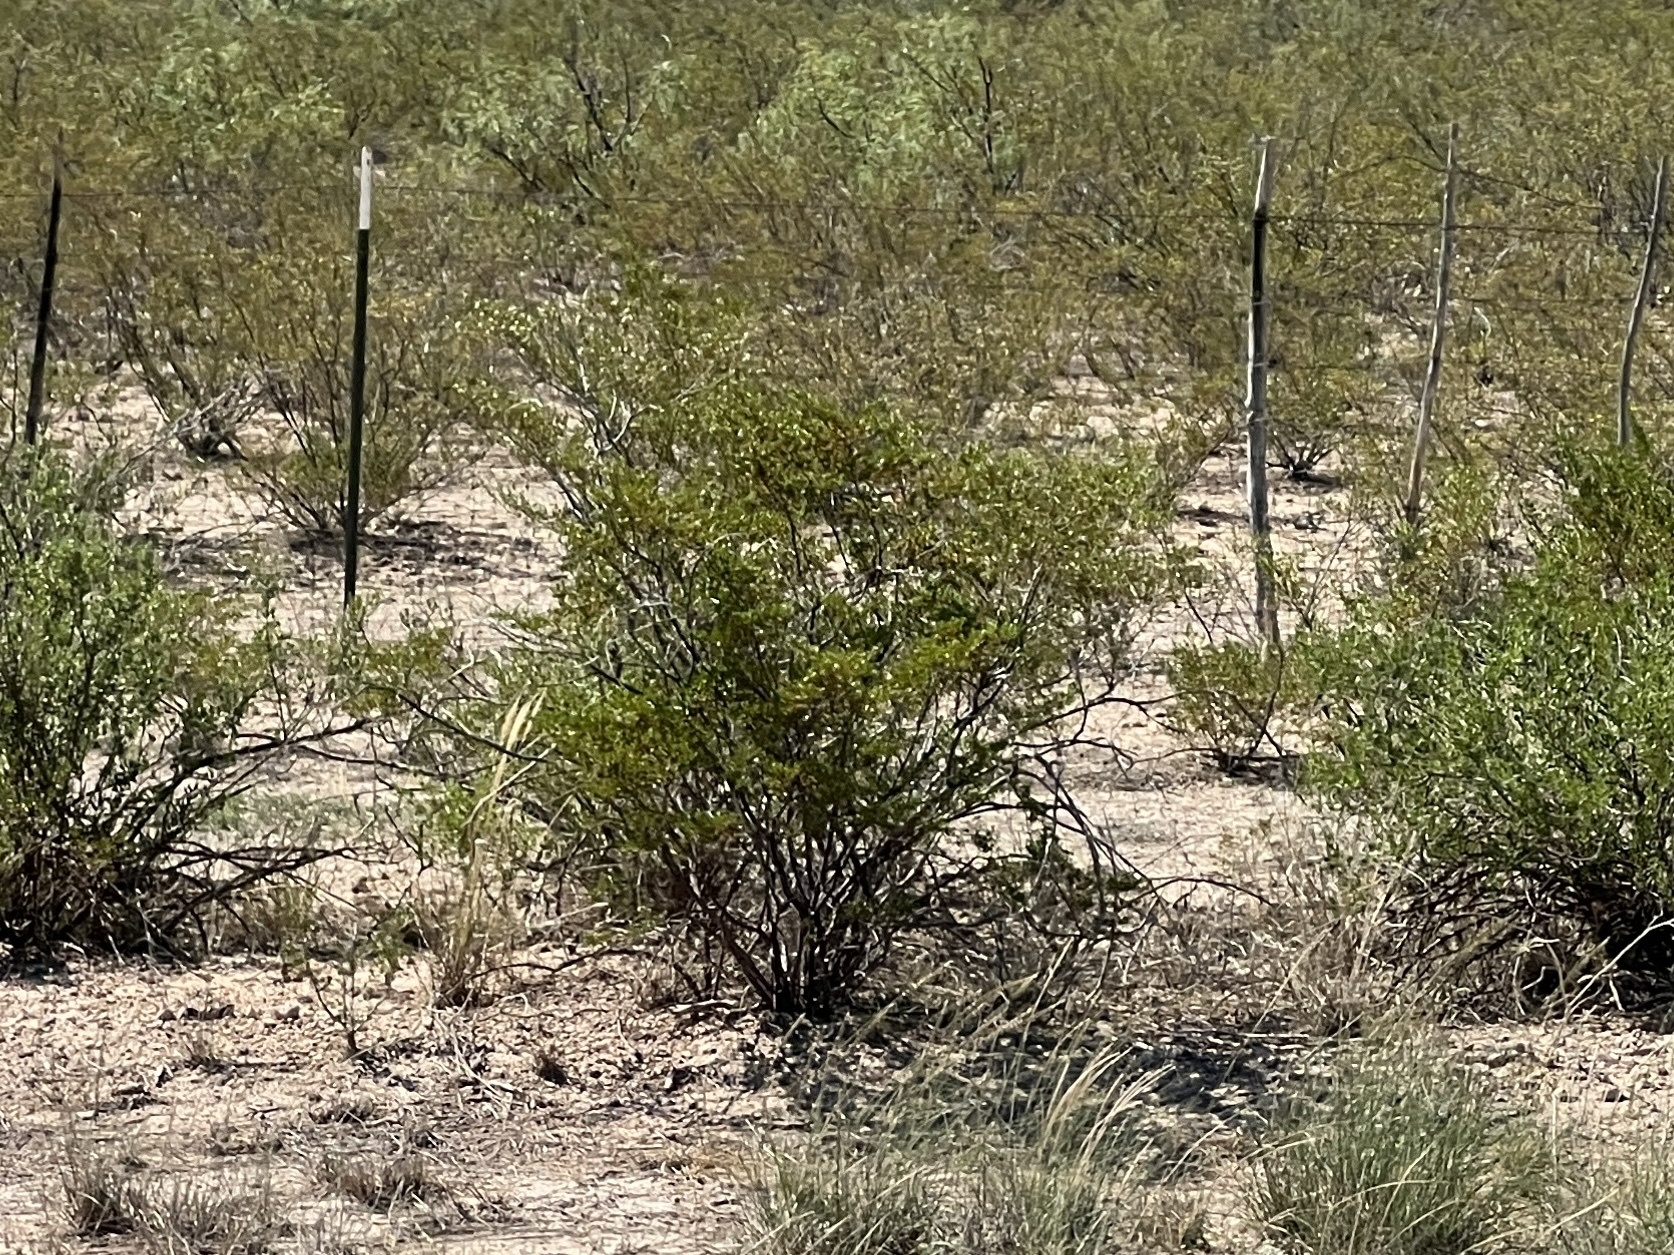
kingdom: Plantae
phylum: Tracheophyta
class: Magnoliopsida
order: Zygophyllales
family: Zygophyllaceae
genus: Larrea
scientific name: Larrea tridentata
